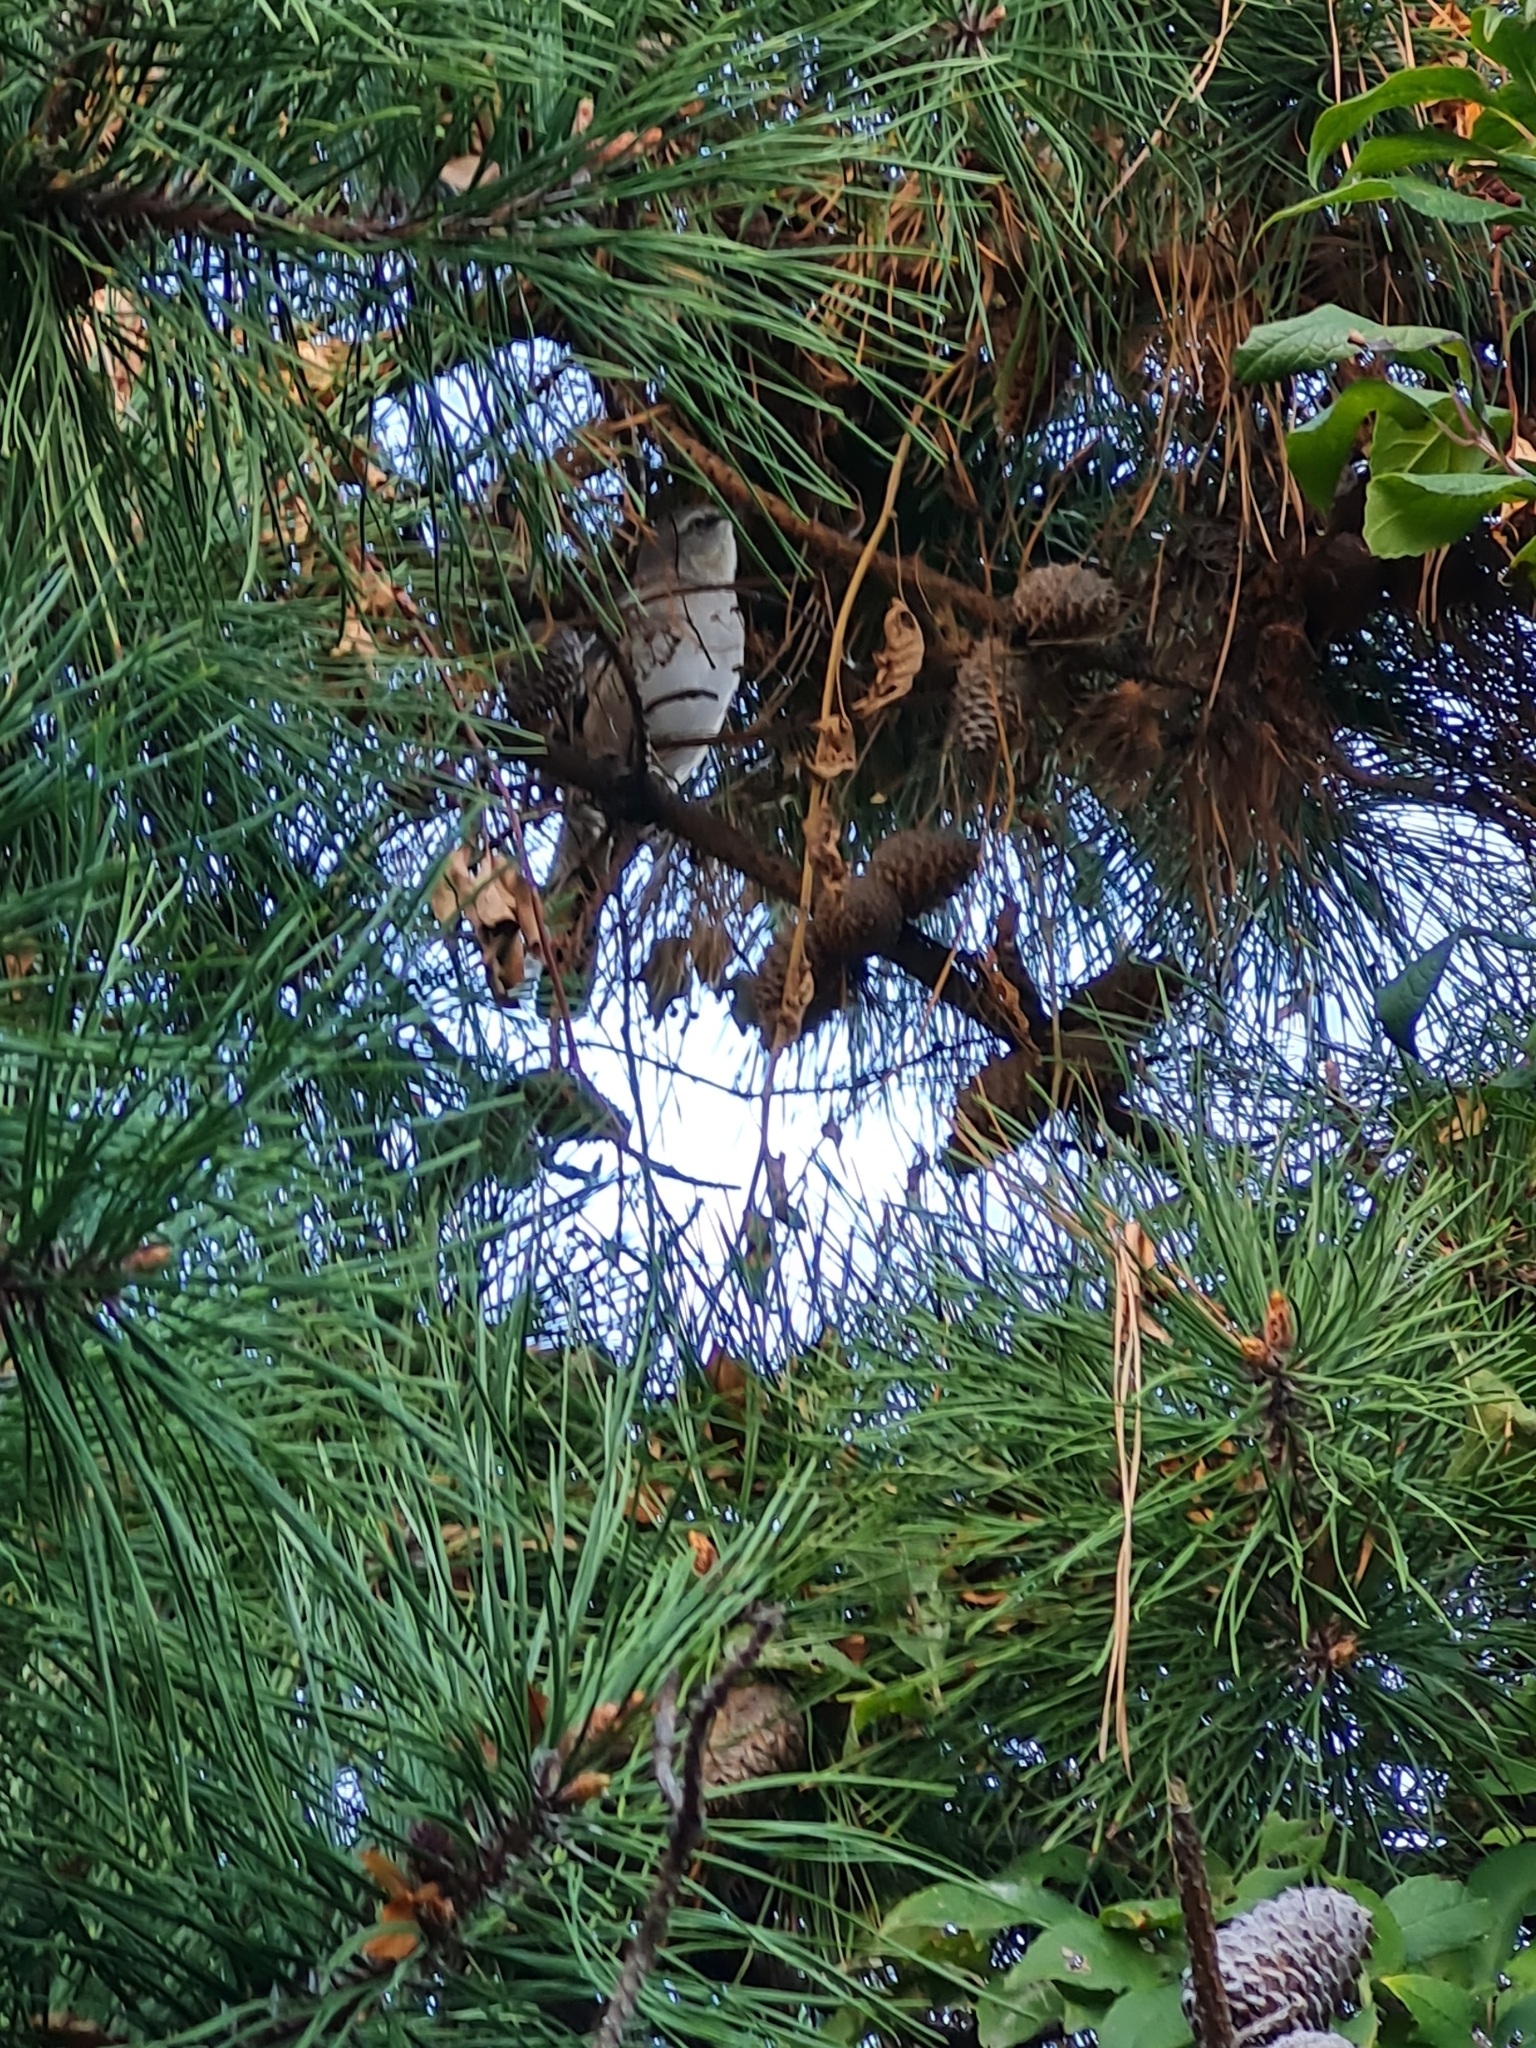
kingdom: Animalia
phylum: Chordata
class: Aves
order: Passeriformes
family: Mimidae
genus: Mimus
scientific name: Mimus polyglottos
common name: Northern mockingbird
